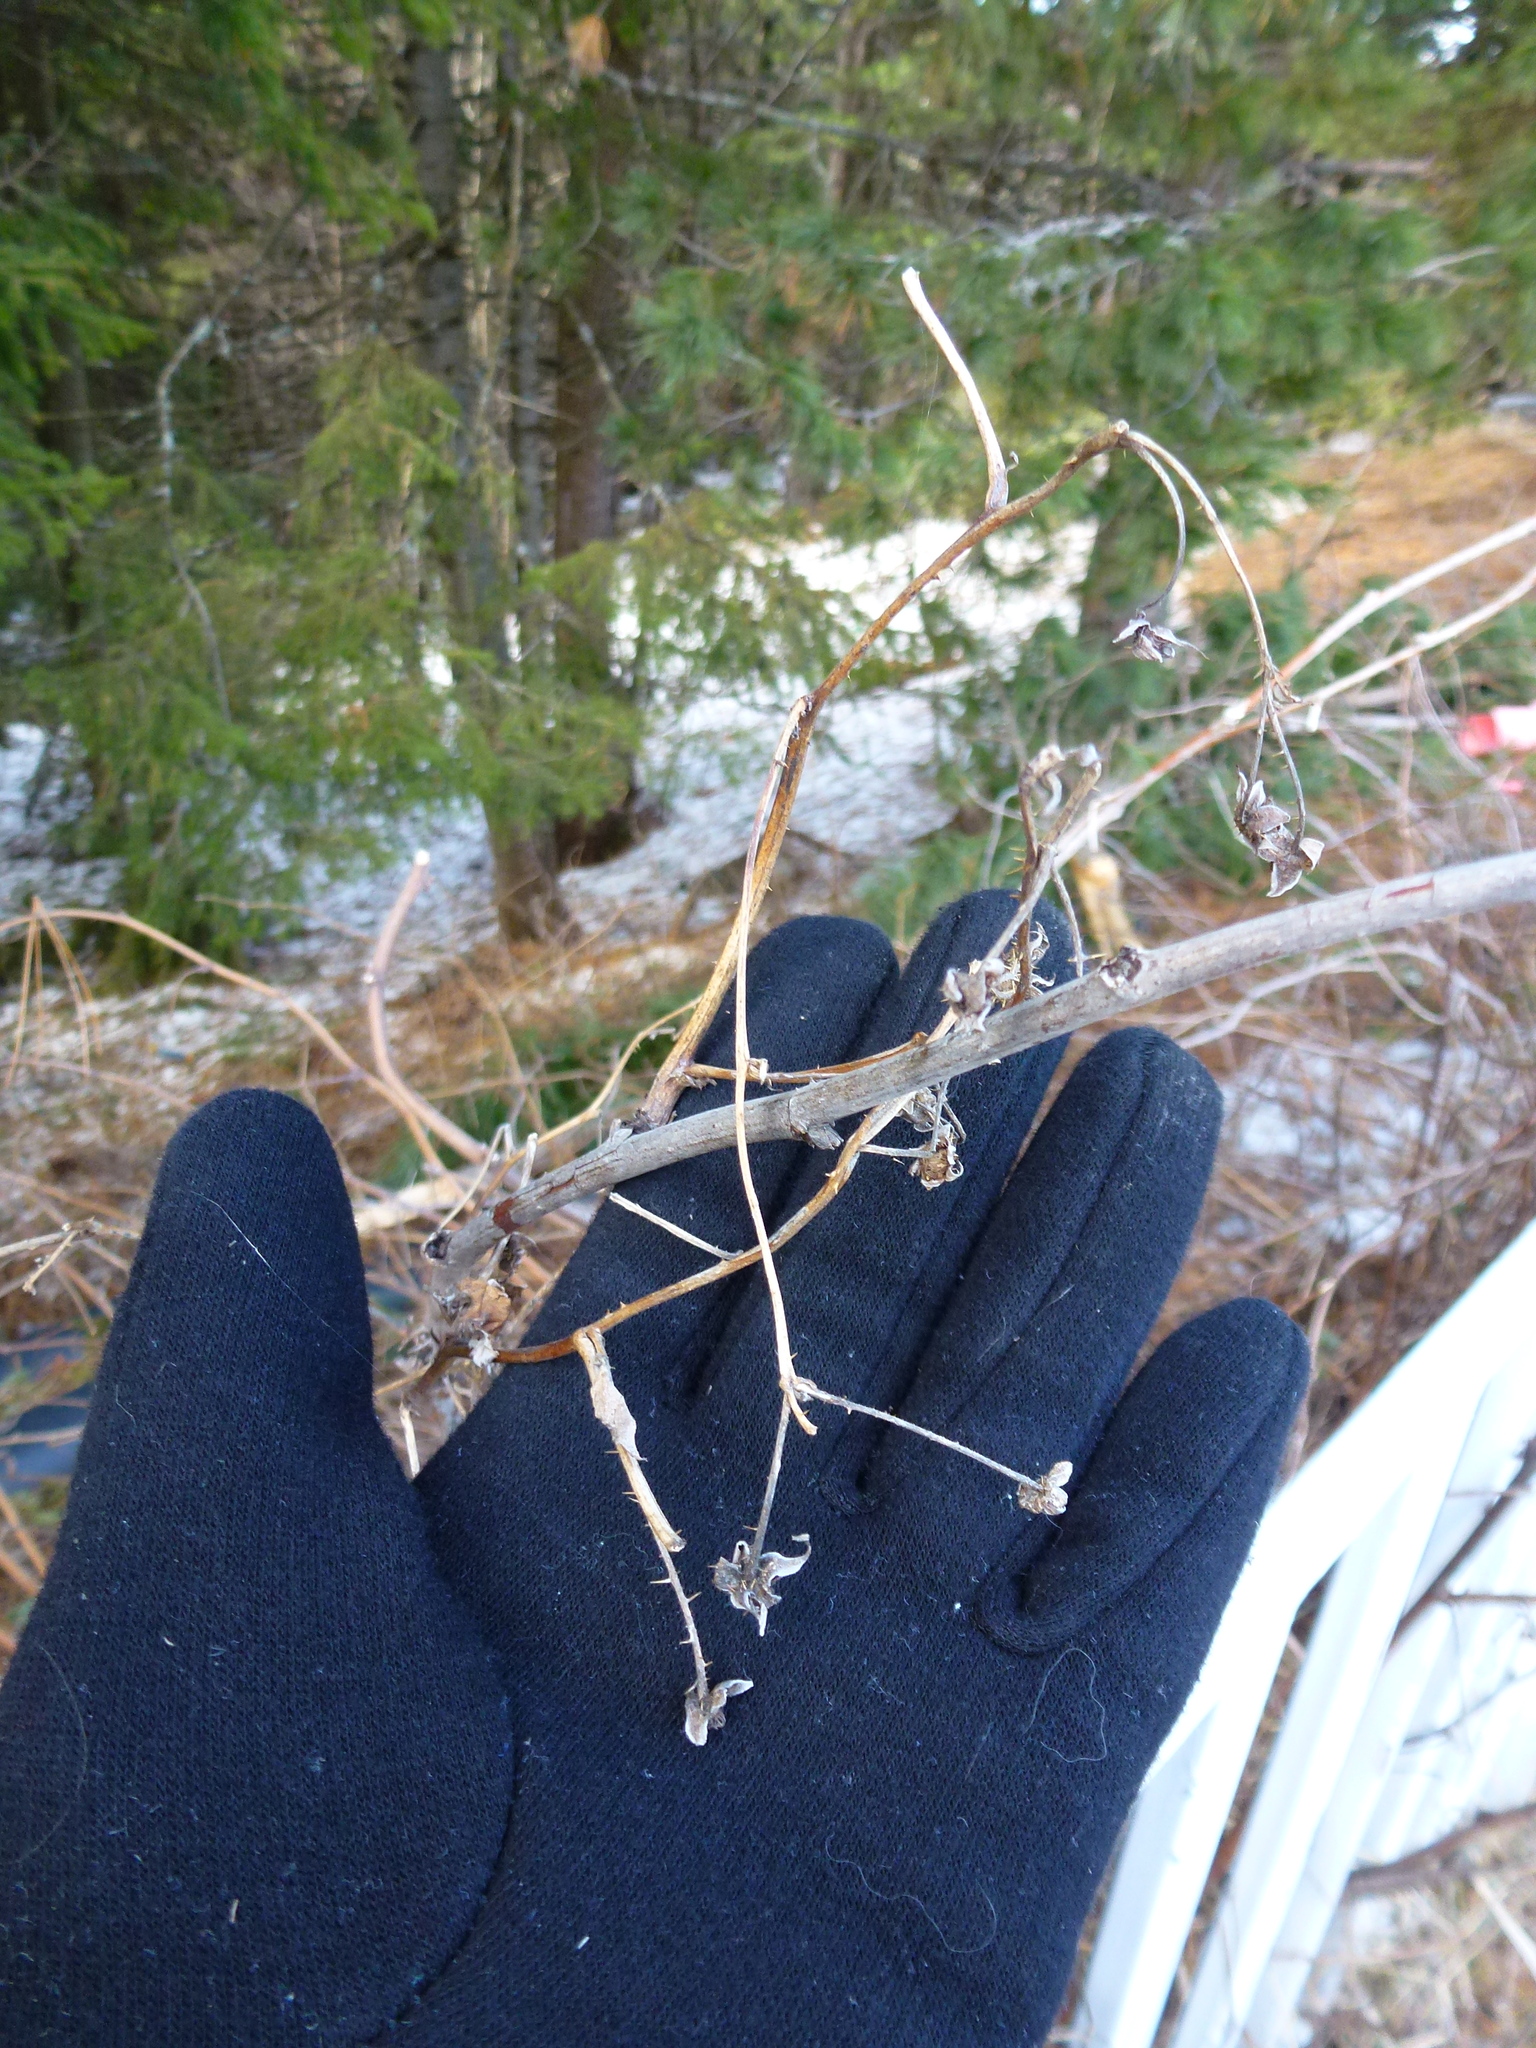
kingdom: Plantae
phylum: Tracheophyta
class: Magnoliopsida
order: Rosales
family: Rosaceae
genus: Rubus
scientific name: Rubus sachalinensis
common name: Red raspberry
